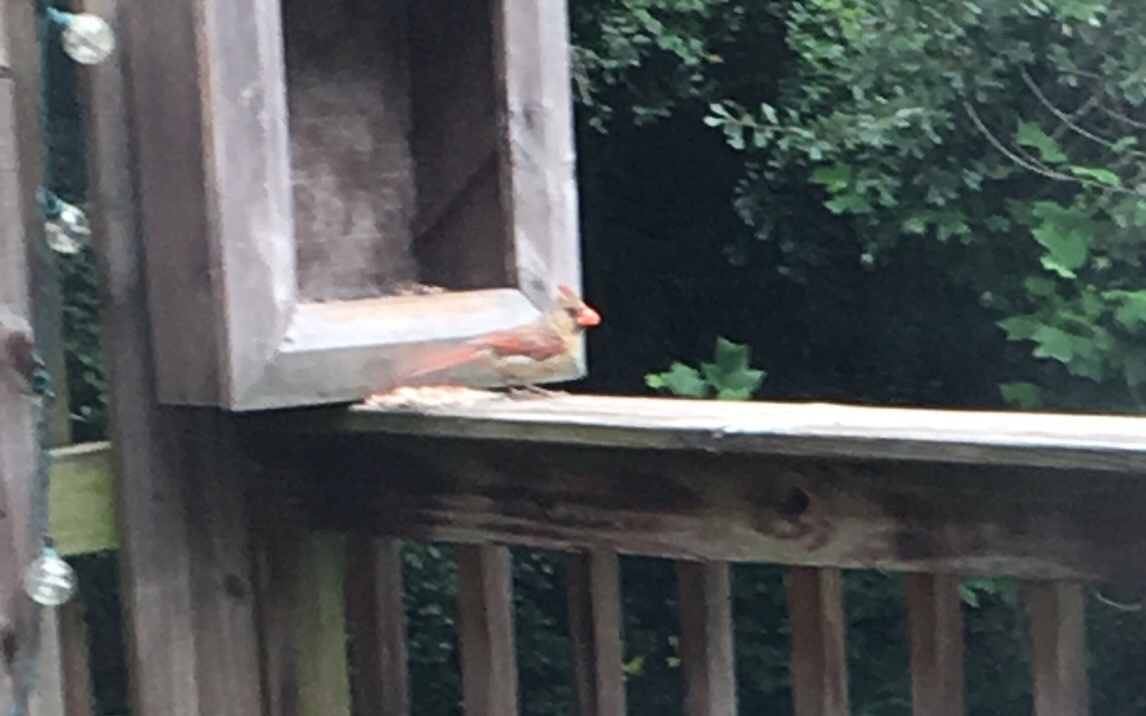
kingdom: Animalia
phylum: Chordata
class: Aves
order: Passeriformes
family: Cardinalidae
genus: Cardinalis
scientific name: Cardinalis cardinalis
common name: Northern cardinal
